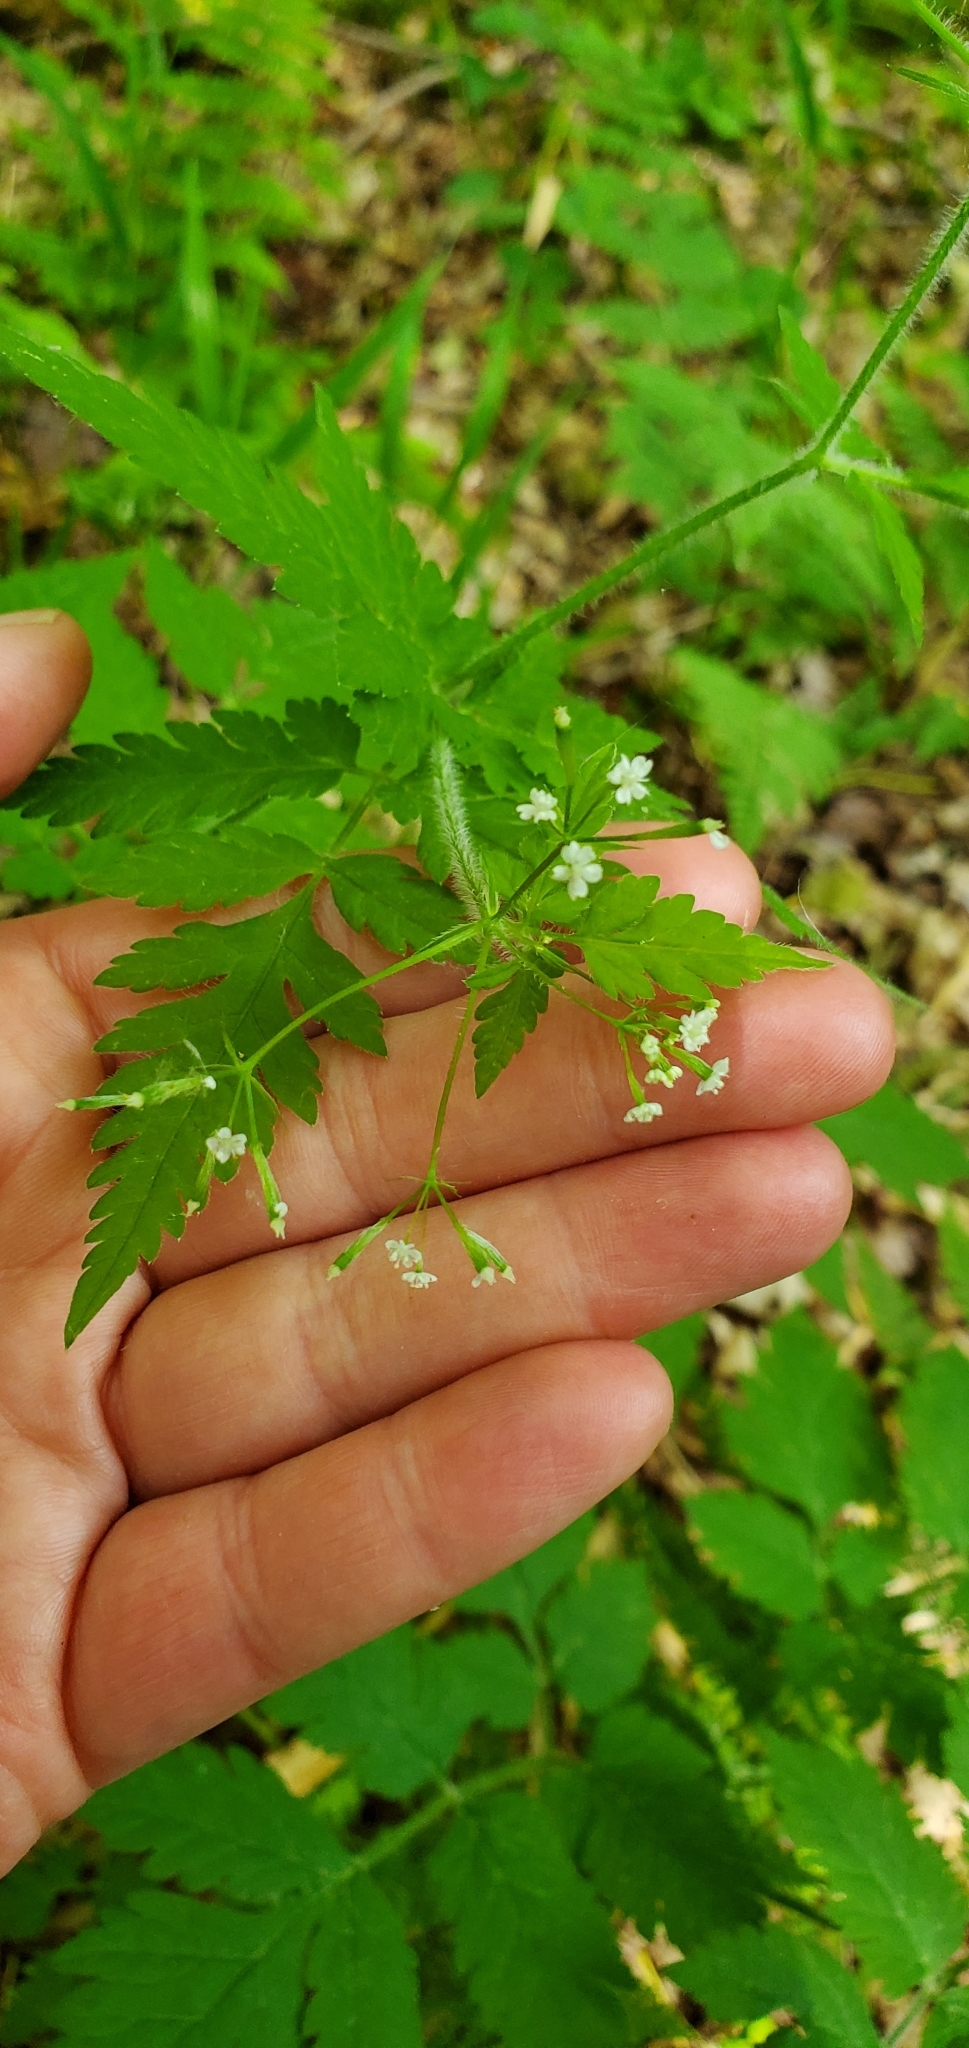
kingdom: Plantae
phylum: Tracheophyta
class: Magnoliopsida
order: Apiales
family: Apiaceae
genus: Osmorhiza
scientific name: Osmorhiza claytonii
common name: Hairy sweet cicely
